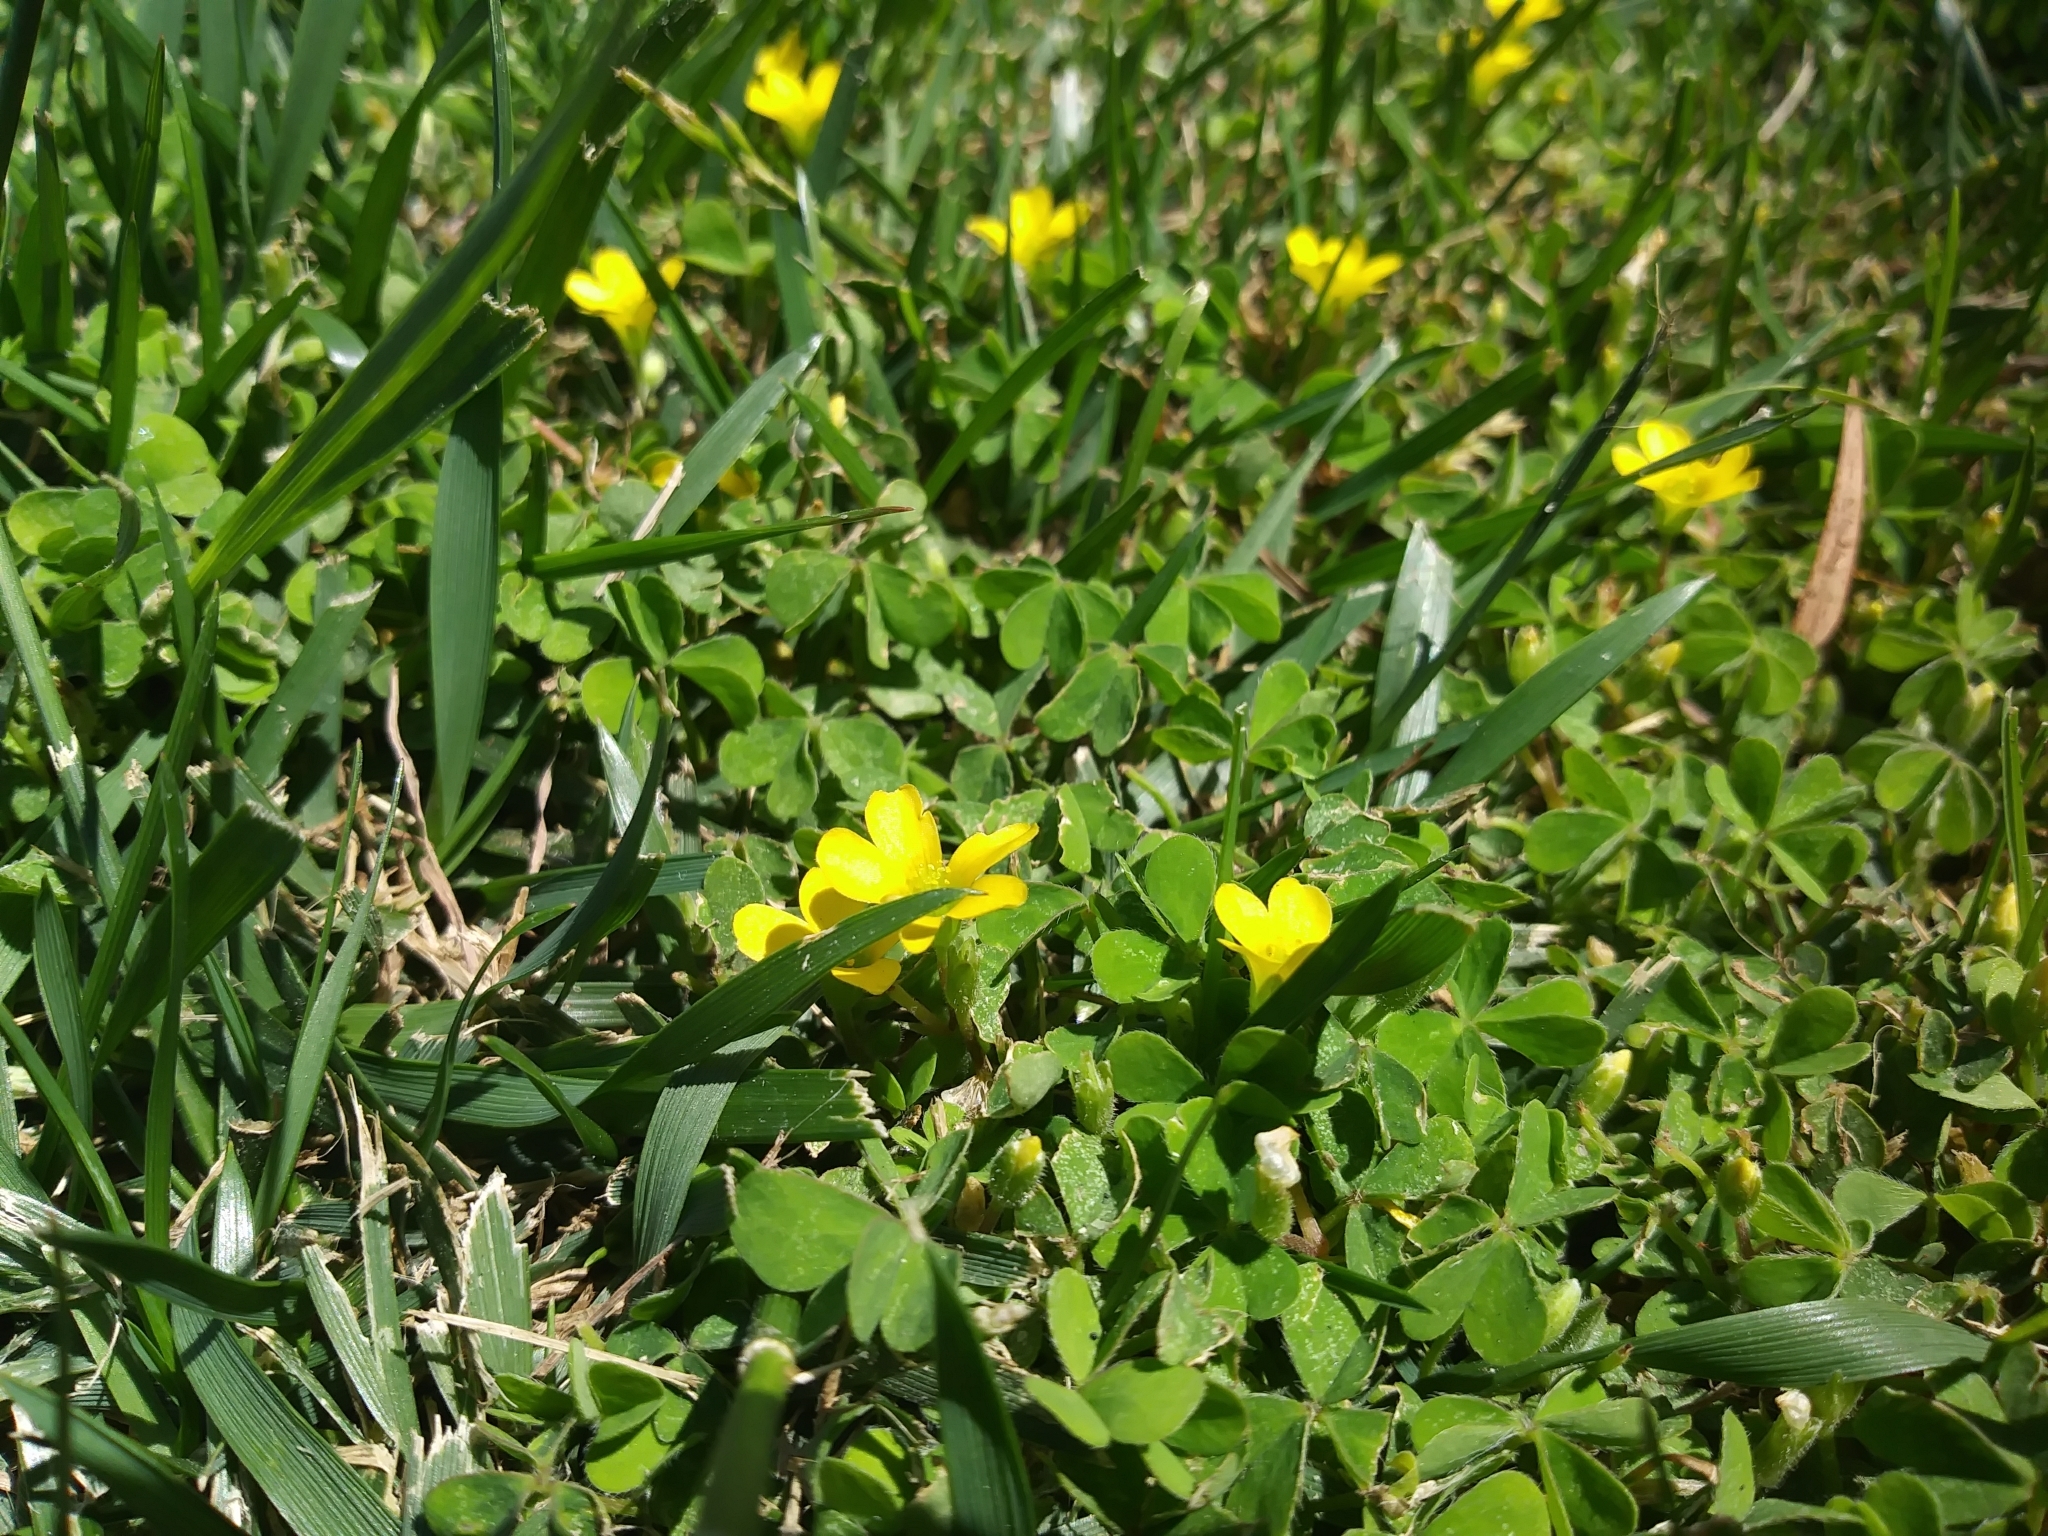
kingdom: Plantae
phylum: Tracheophyta
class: Magnoliopsida
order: Oxalidales
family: Oxalidaceae
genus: Oxalis
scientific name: Oxalis corniculata
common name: Procumbent yellow-sorrel
